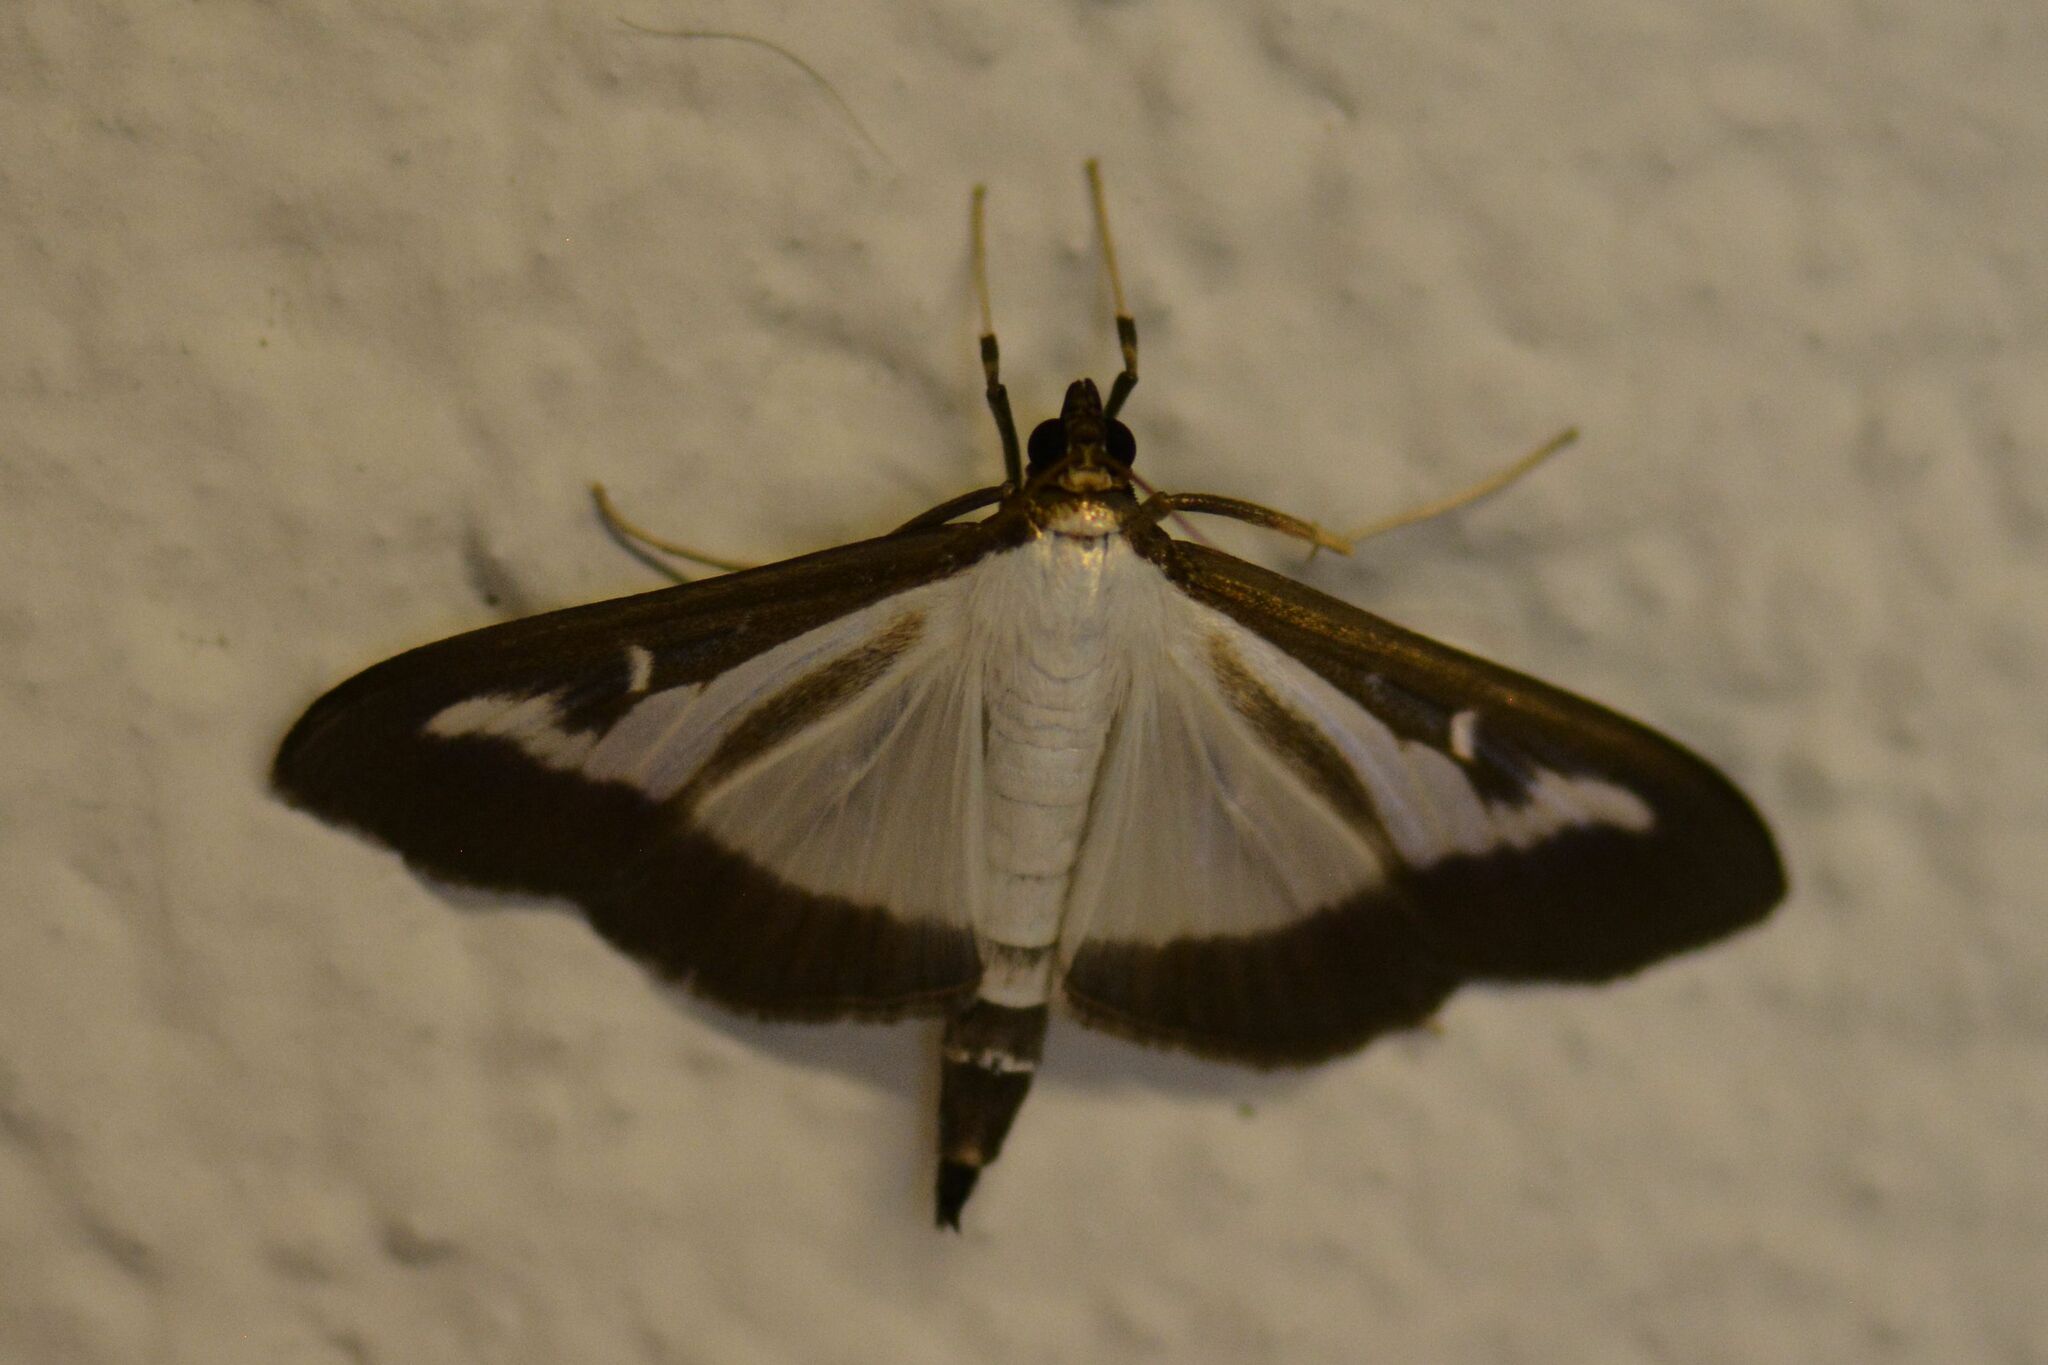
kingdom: Animalia
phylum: Arthropoda
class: Insecta
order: Lepidoptera
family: Crambidae
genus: Cydalima
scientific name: Cydalima perspectalis
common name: Box tree moth
